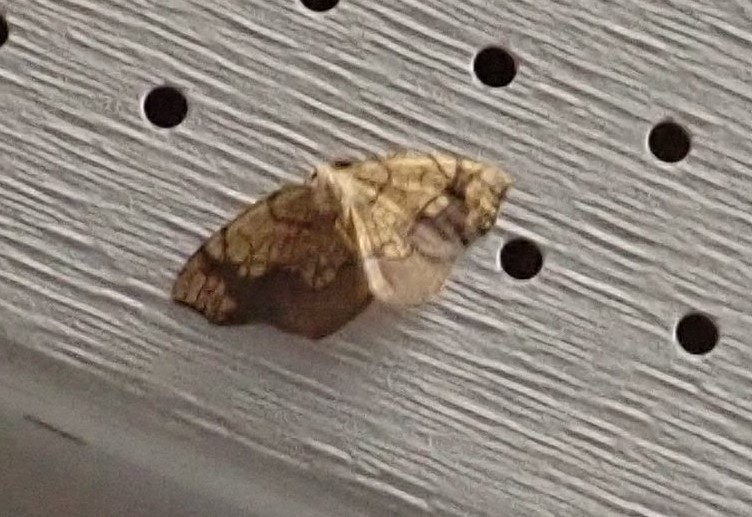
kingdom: Animalia
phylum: Arthropoda
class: Insecta
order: Lepidoptera
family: Geometridae
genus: Nematocampa
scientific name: Nematocampa resistaria
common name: Horned spanworm moth
